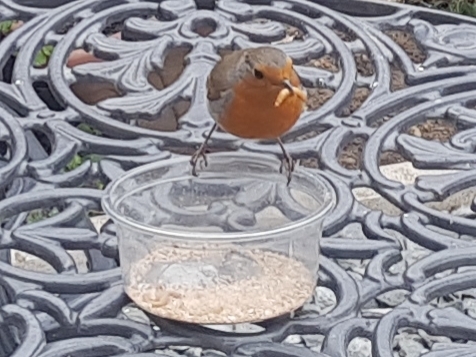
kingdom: Animalia
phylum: Chordata
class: Aves
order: Passeriformes
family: Muscicapidae
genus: Erithacus
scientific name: Erithacus rubecula
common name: European robin
